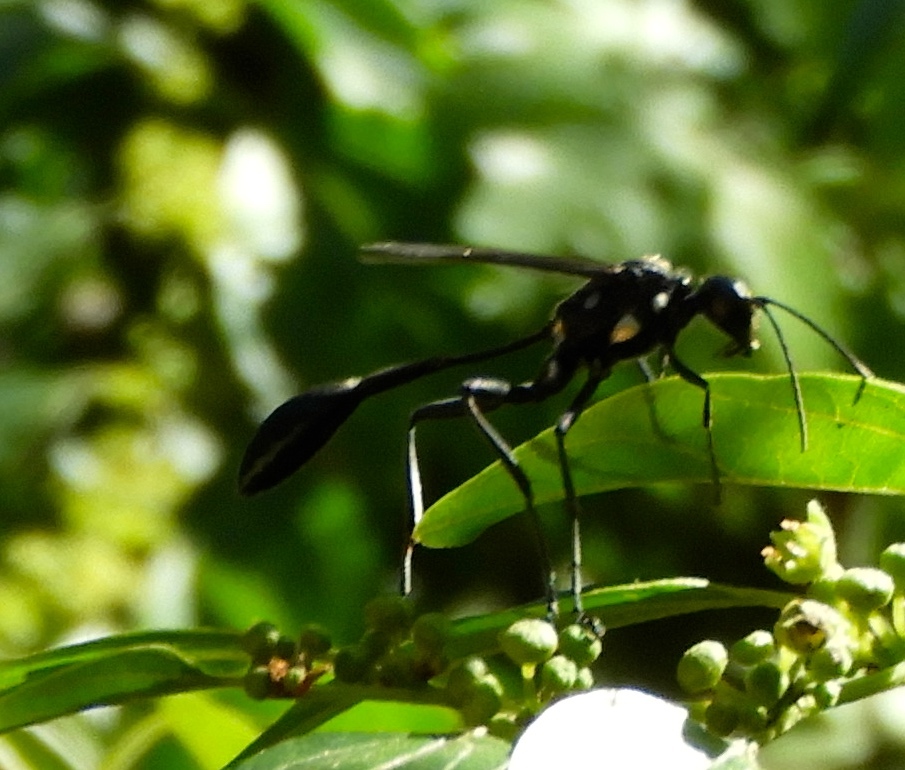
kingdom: Animalia
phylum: Arthropoda
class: Insecta
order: Hymenoptera
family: Sphecidae
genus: Eremnophila
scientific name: Eremnophila aureonotata
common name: Gold-marked thread-waisted wasp
